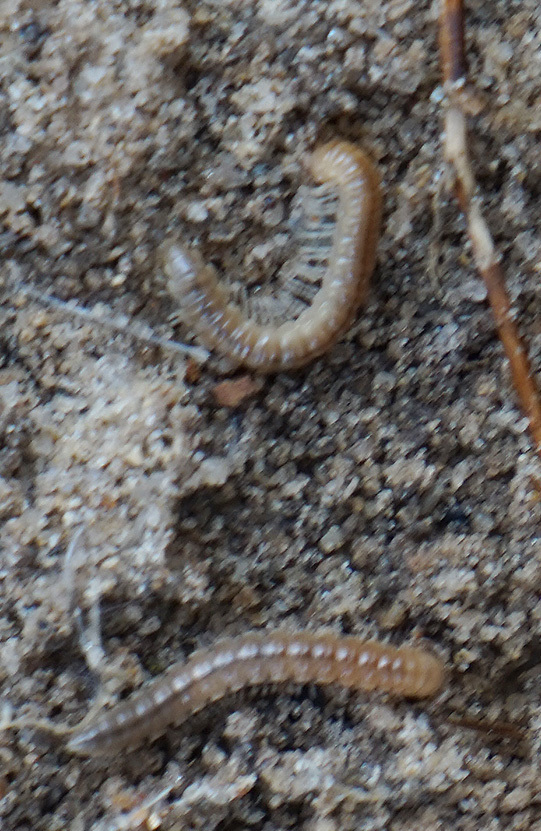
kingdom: Animalia
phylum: Arthropoda
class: Diplopoda
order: Polydesmida
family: Paradoxosomatidae
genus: Oxidus
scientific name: Oxidus gracilis
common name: Greenhouse millipede
